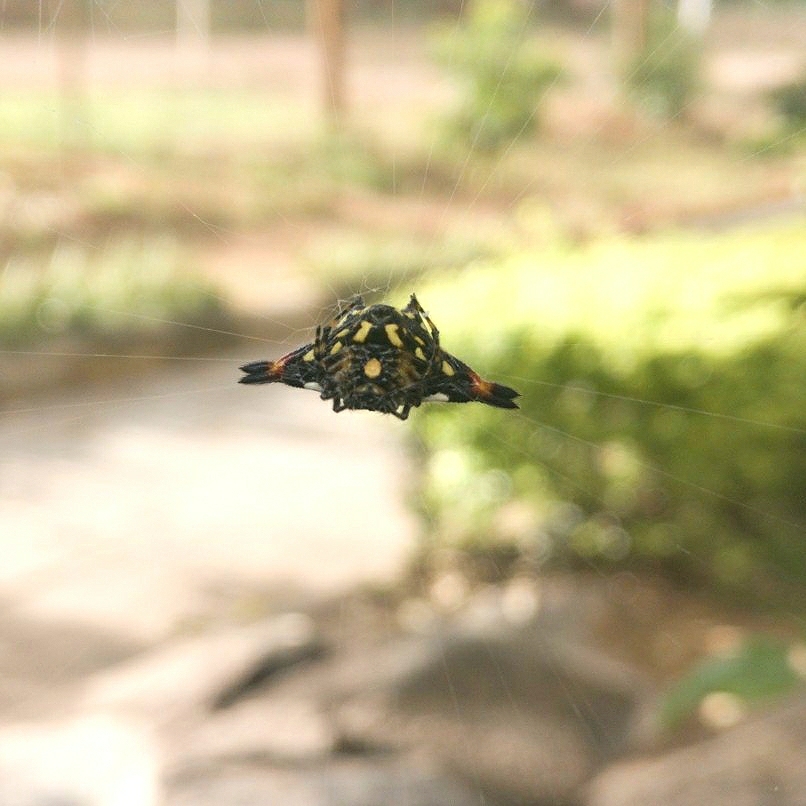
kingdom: Animalia
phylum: Arthropoda
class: Arachnida
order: Araneae
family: Araneidae
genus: Gasteracantha
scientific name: Gasteracantha geminata
